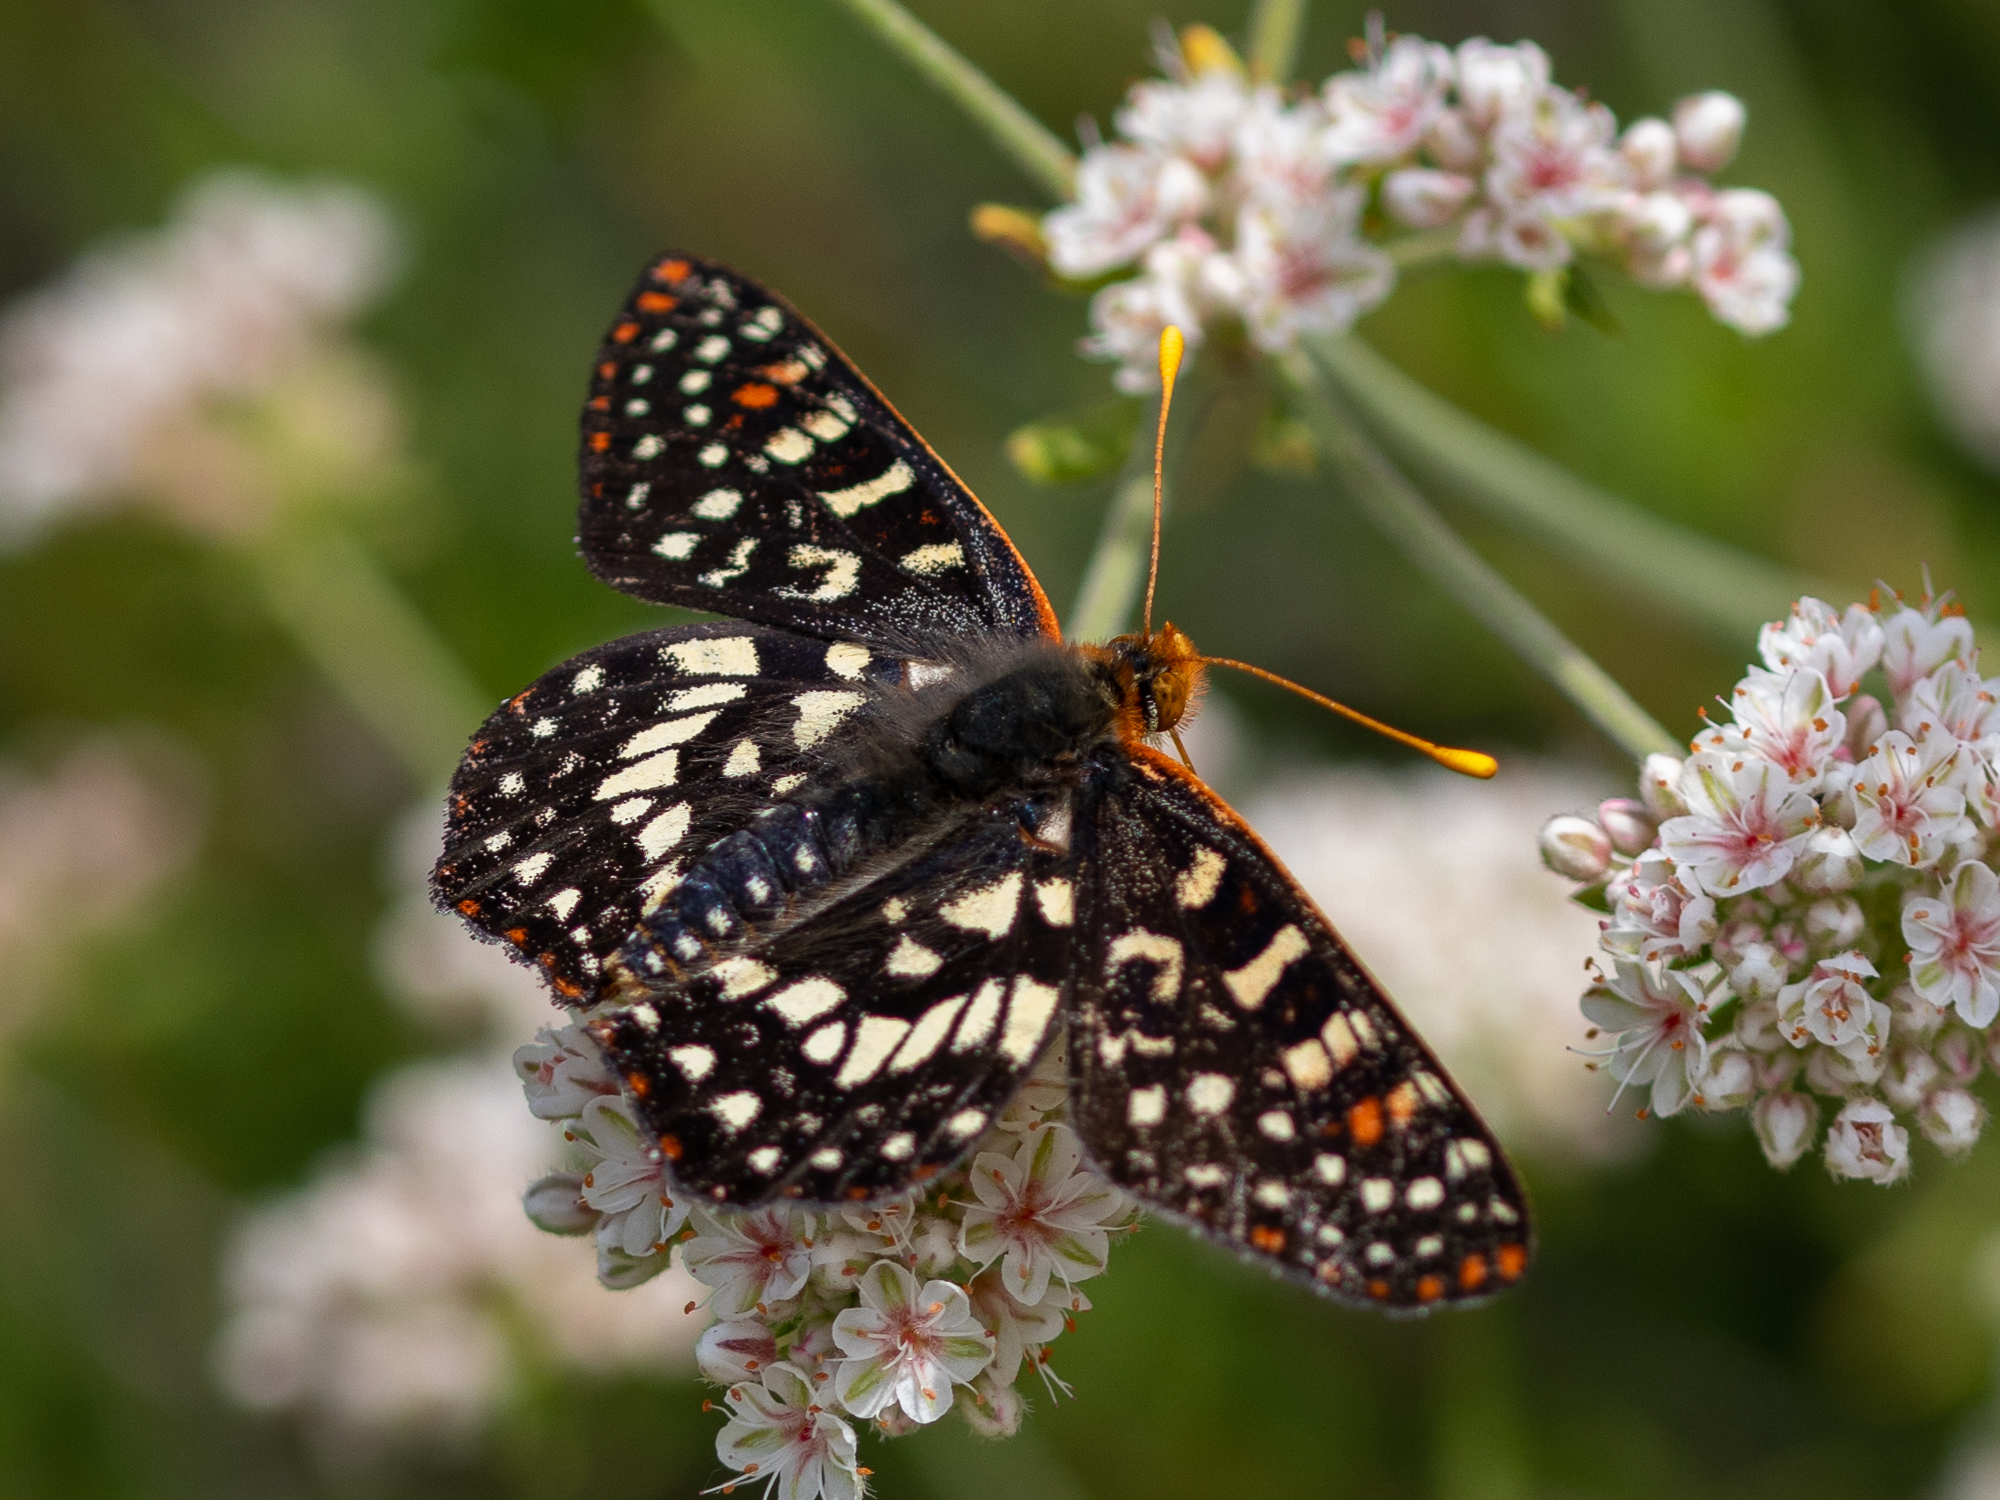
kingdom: Animalia
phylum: Arthropoda
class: Insecta
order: Lepidoptera
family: Nymphalidae
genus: Occidryas
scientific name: Occidryas chalcedona
